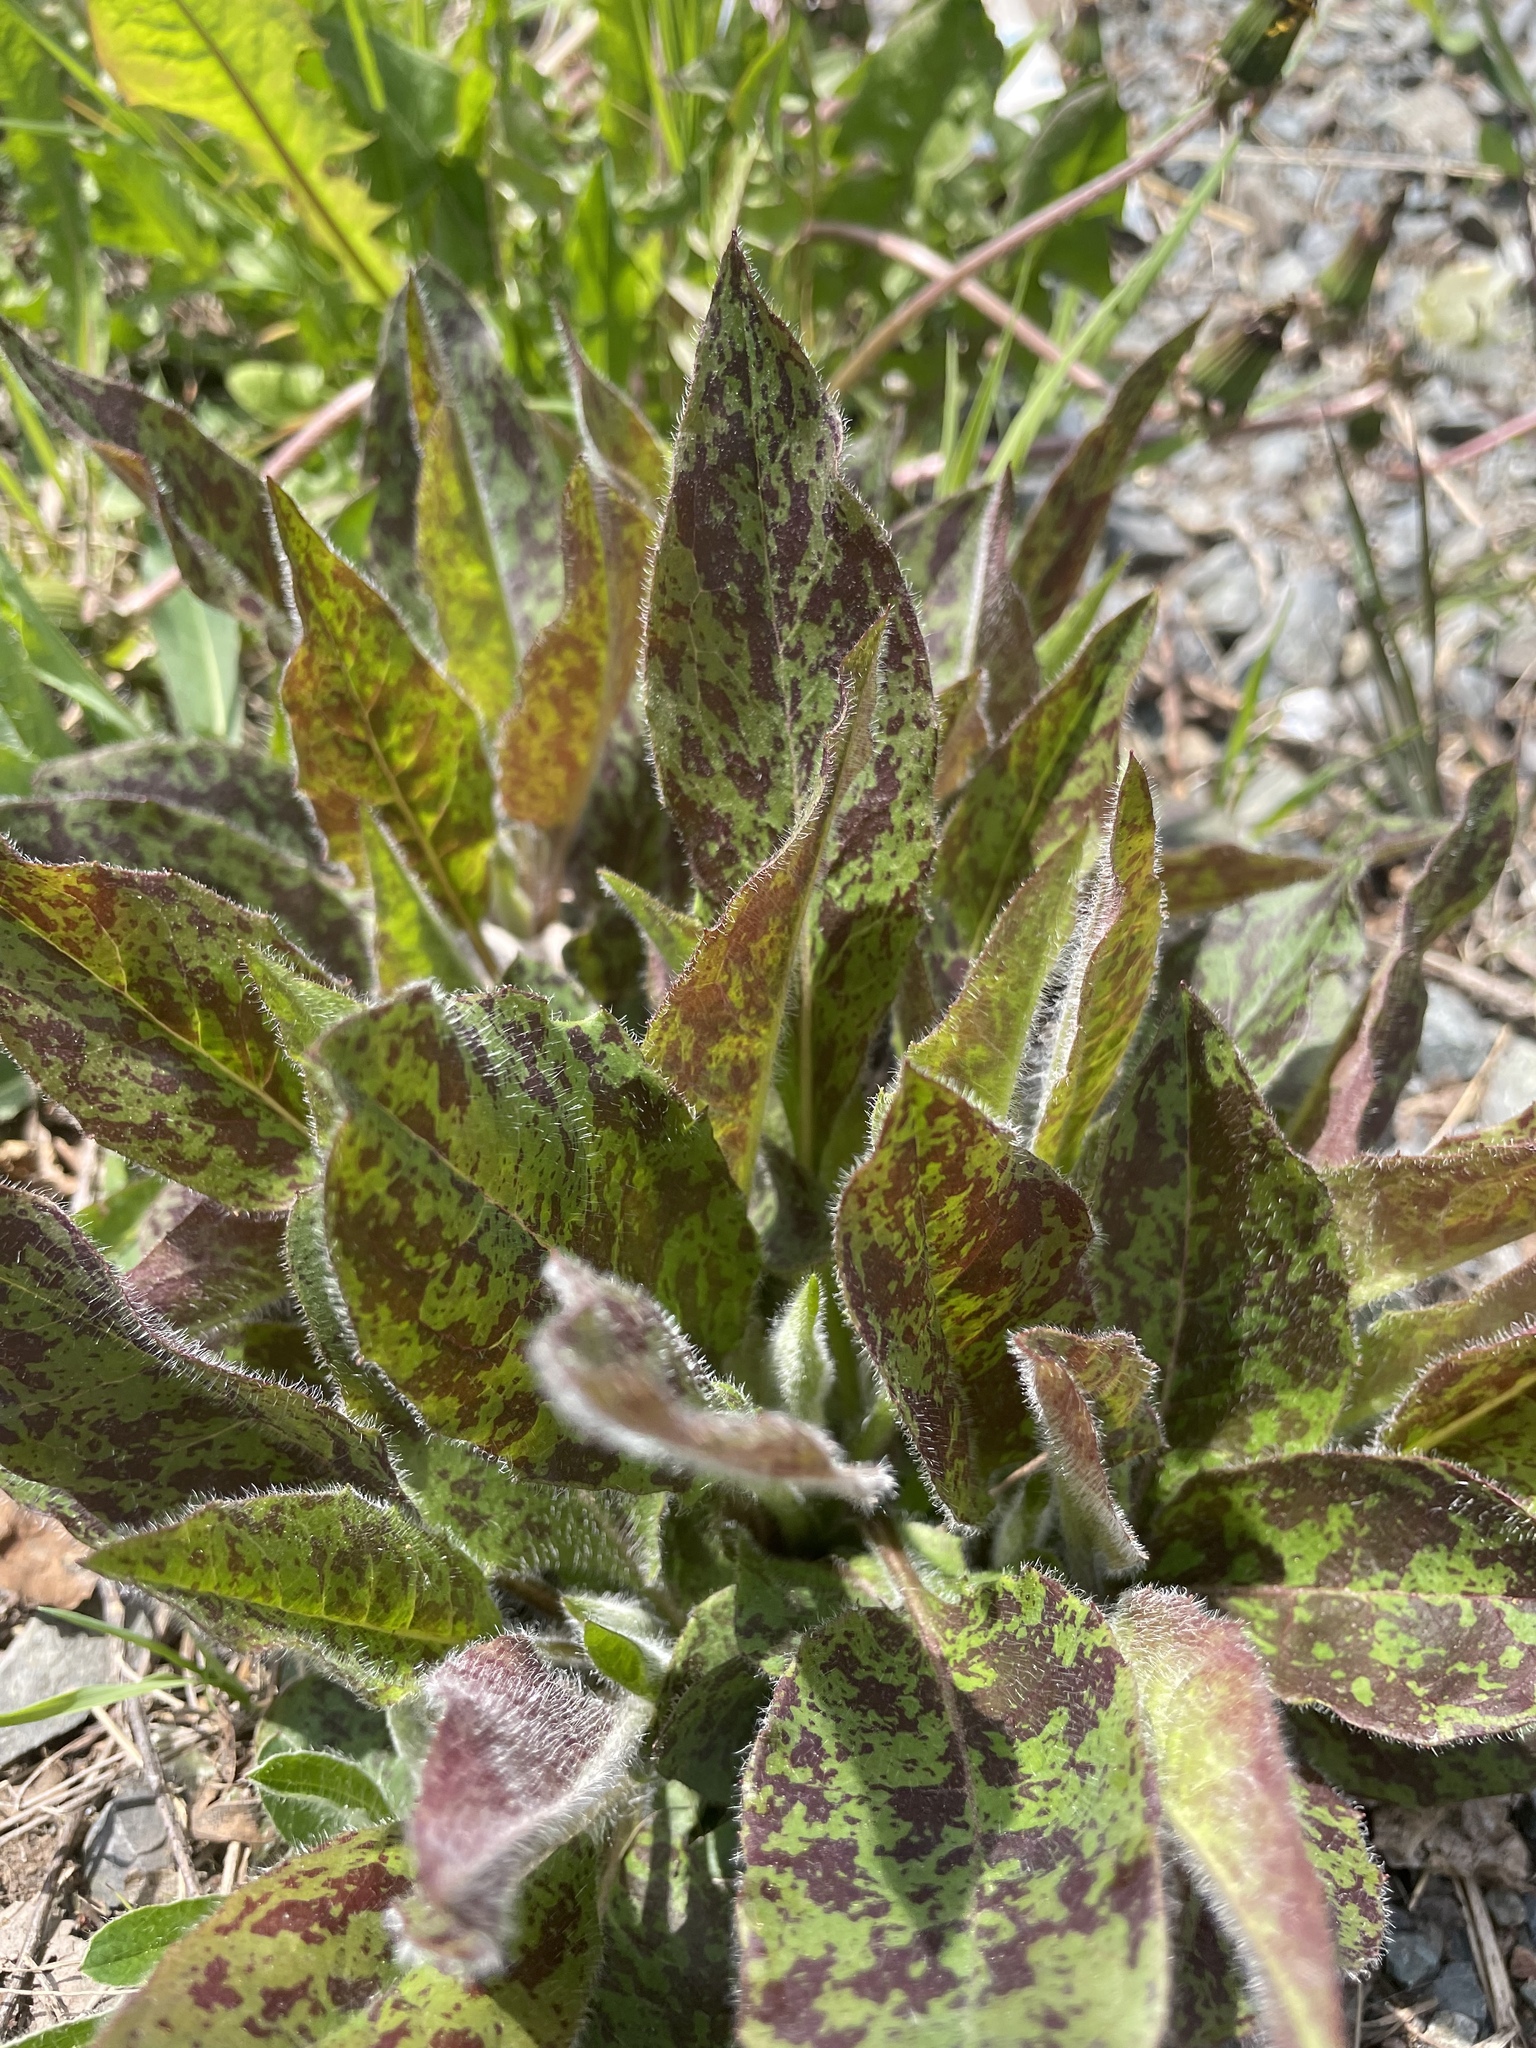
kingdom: Plantae
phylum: Tracheophyta
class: Magnoliopsida
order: Asterales
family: Asteraceae
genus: Hieracium
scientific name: Hieracium maculatum
